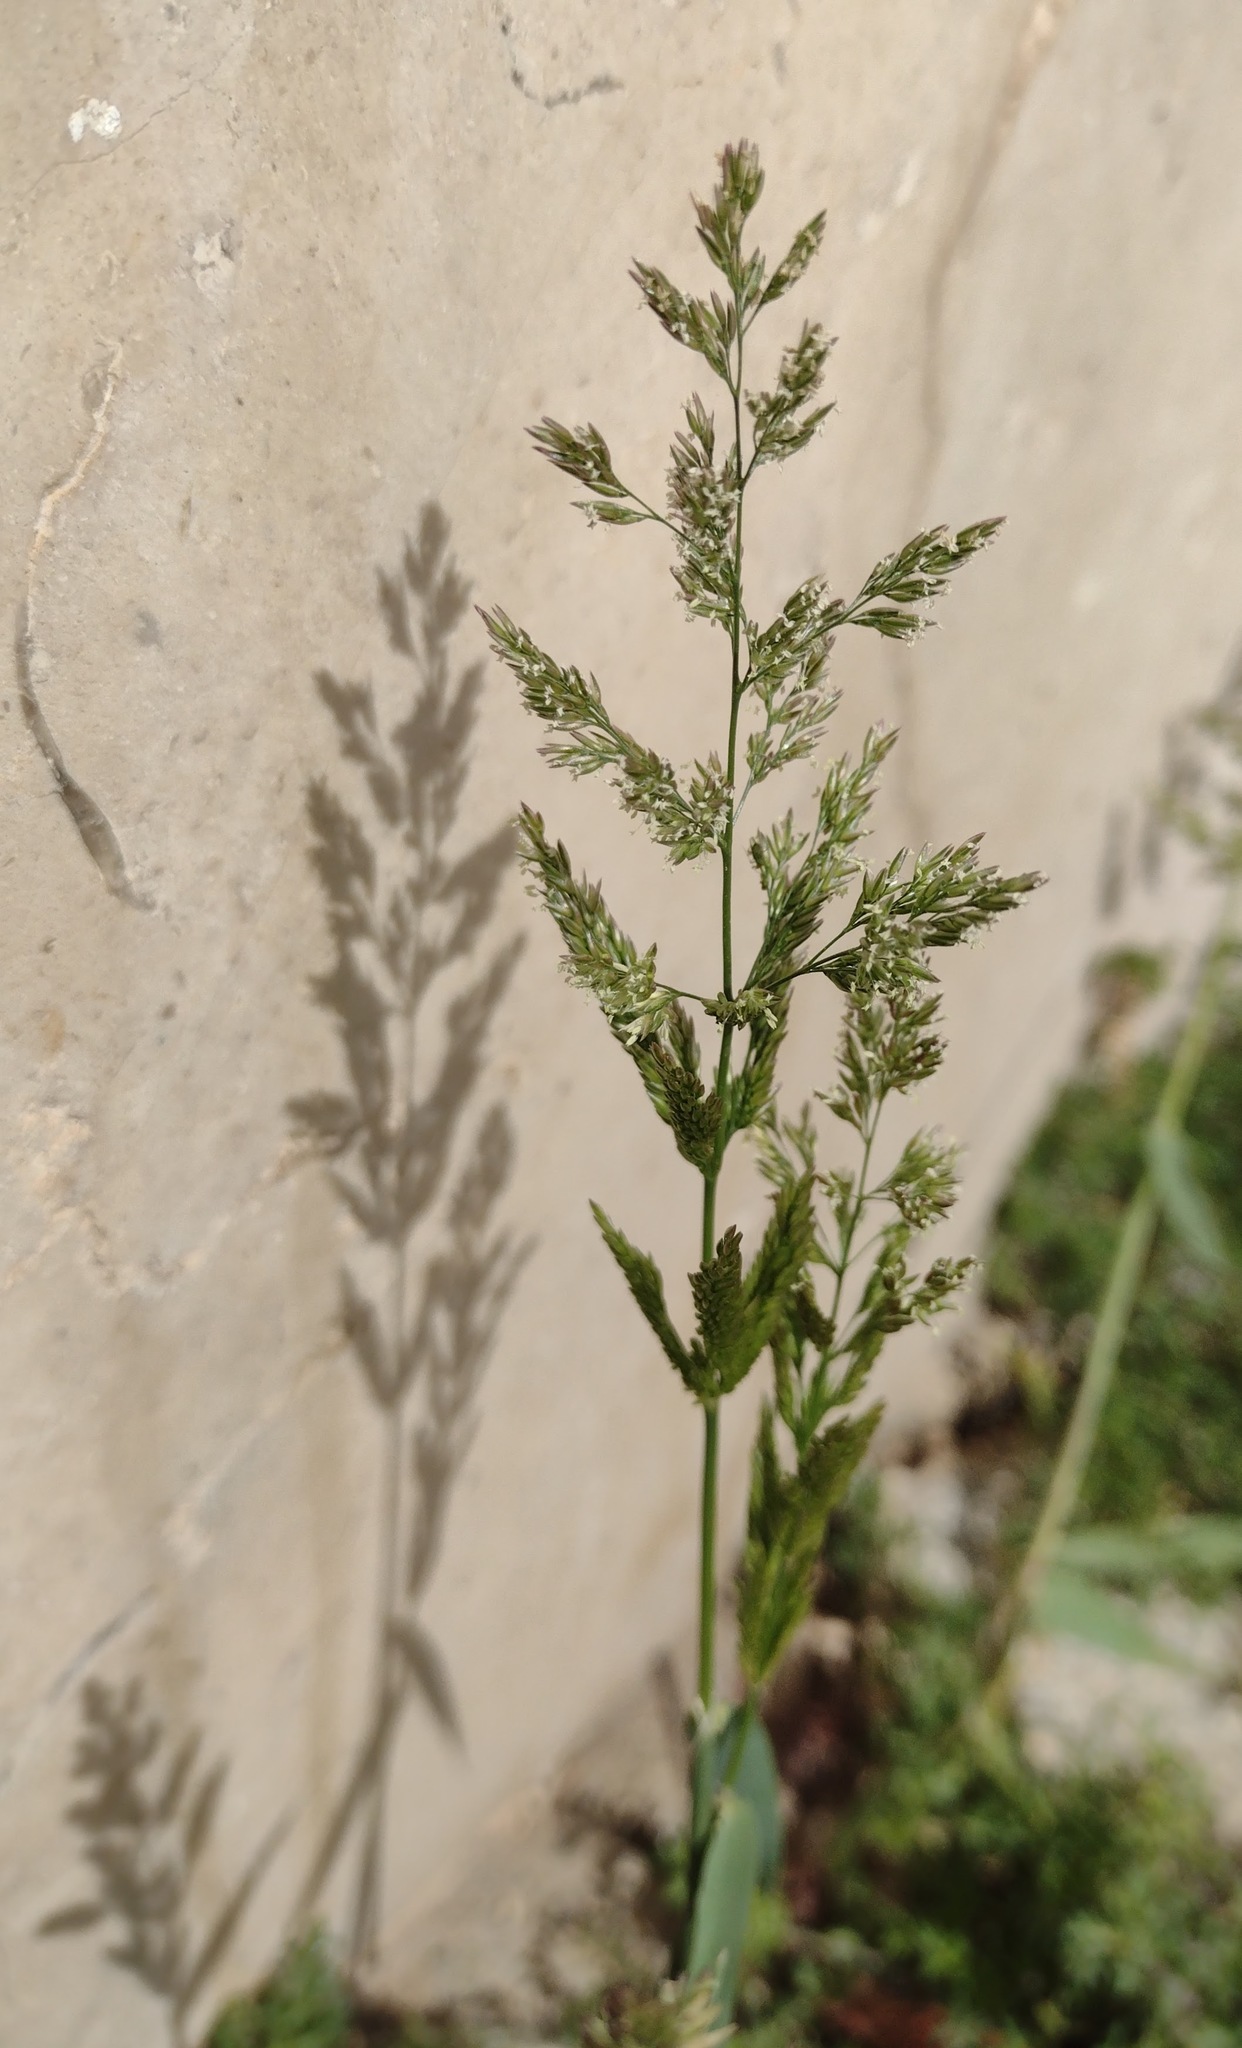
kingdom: Plantae
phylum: Tracheophyta
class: Liliopsida
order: Poales
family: Poaceae
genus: Polypogon
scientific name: Polypogon viridis
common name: Water bent
